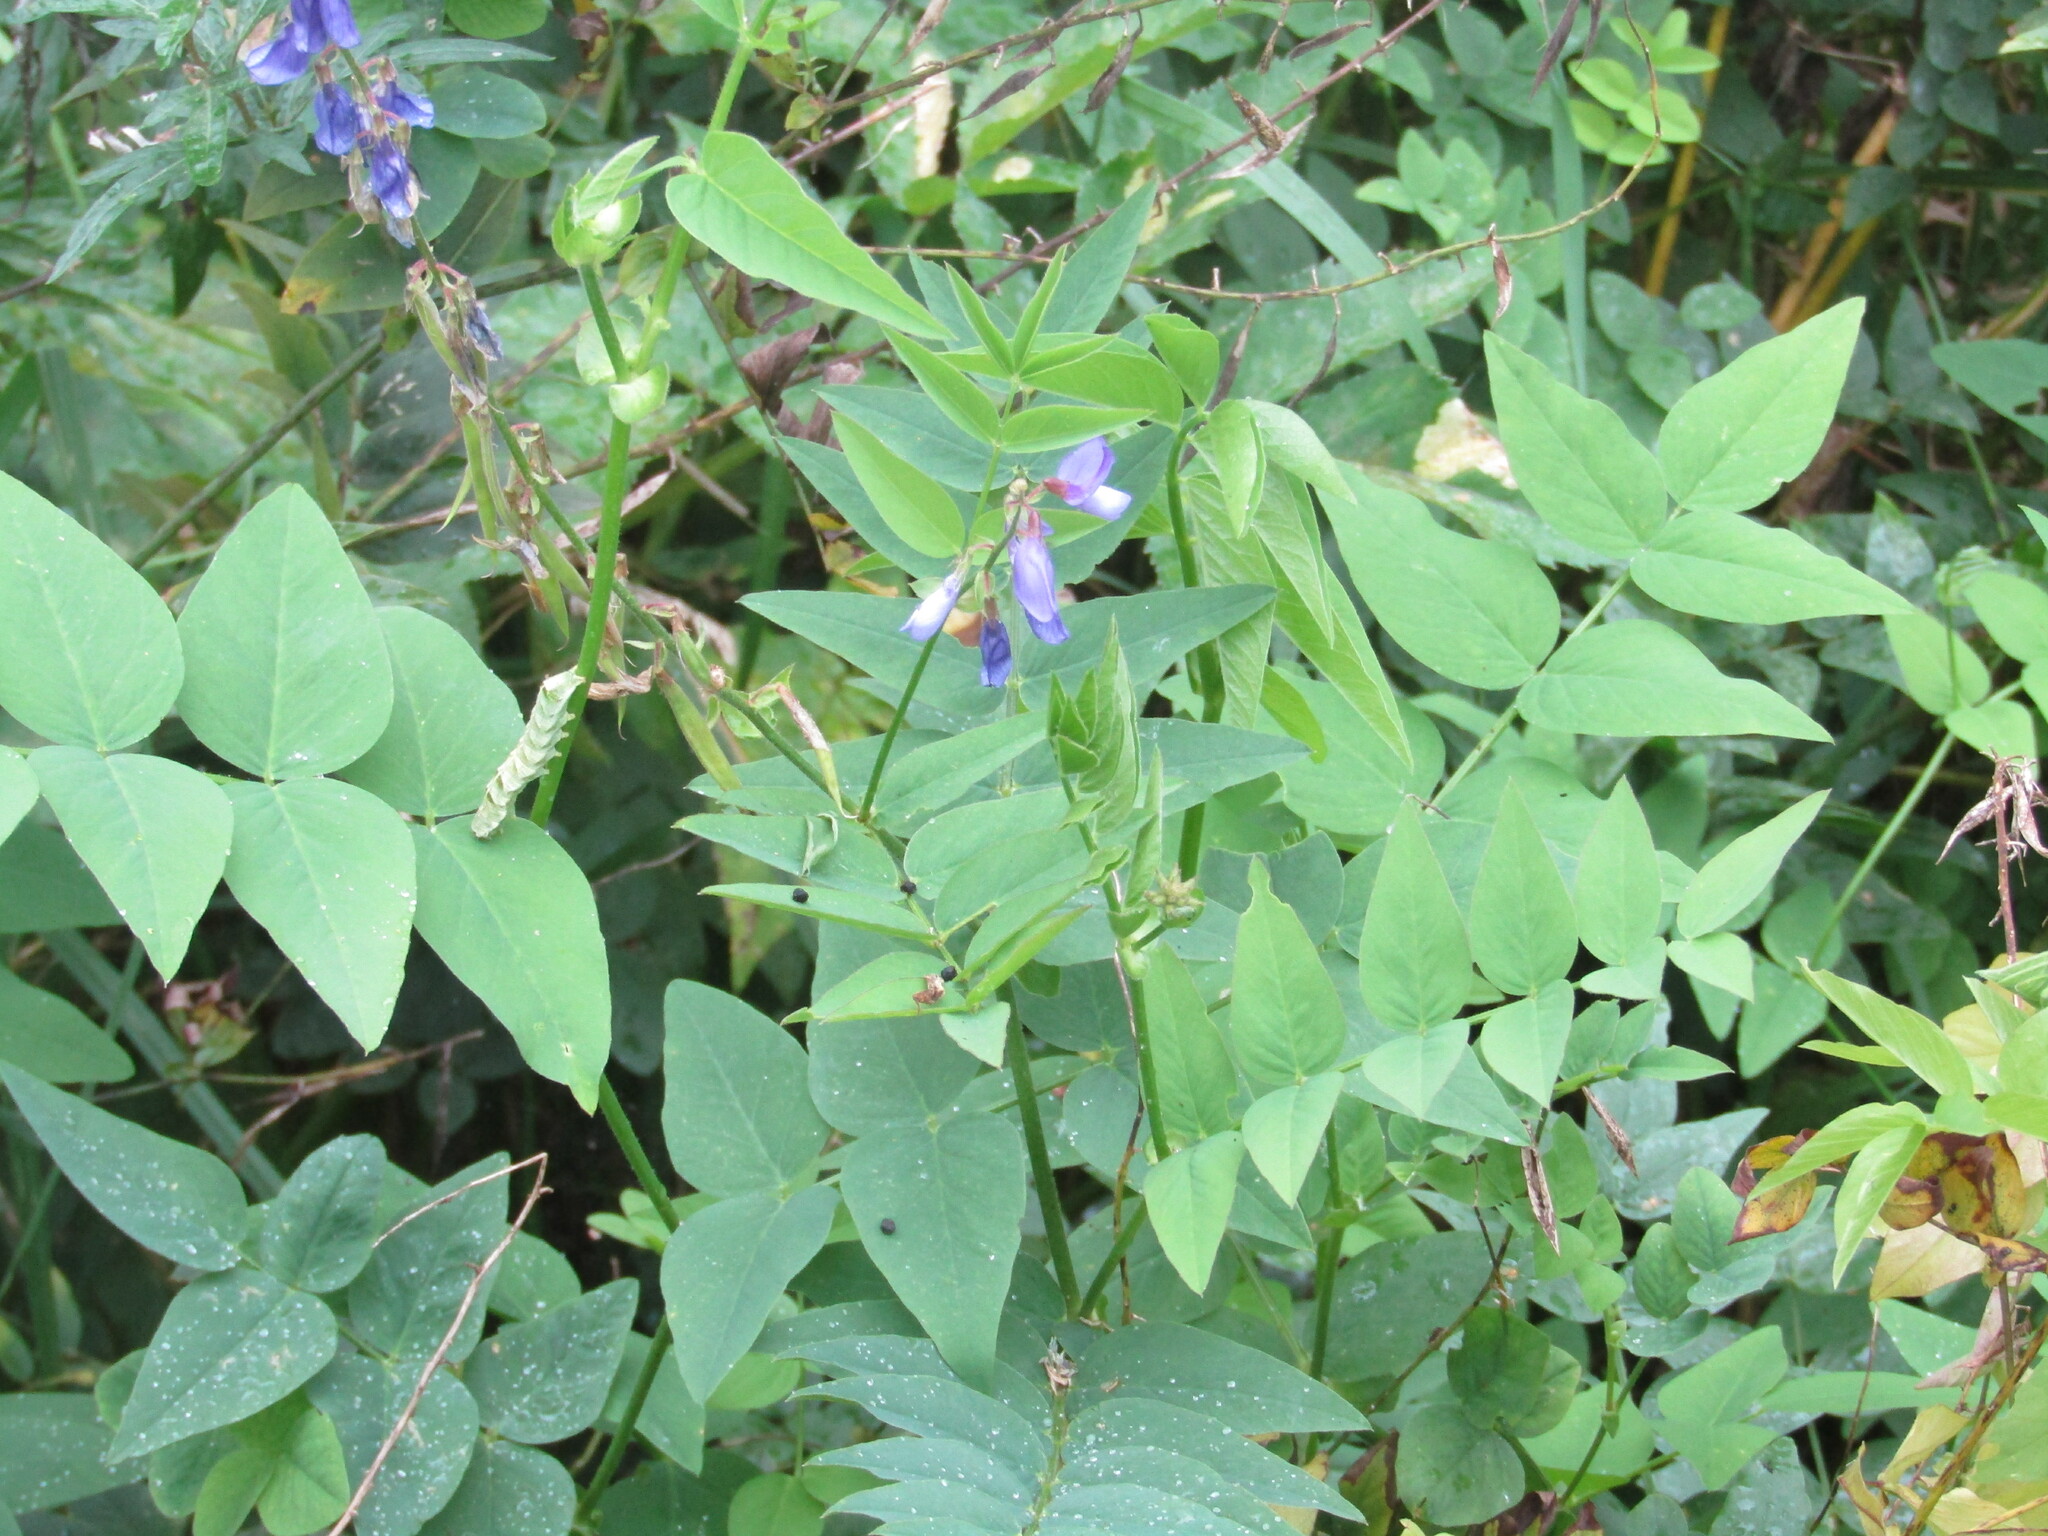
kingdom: Plantae
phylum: Tracheophyta
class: Magnoliopsida
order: Fabales
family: Fabaceae
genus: Galega
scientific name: Galega orientalis
